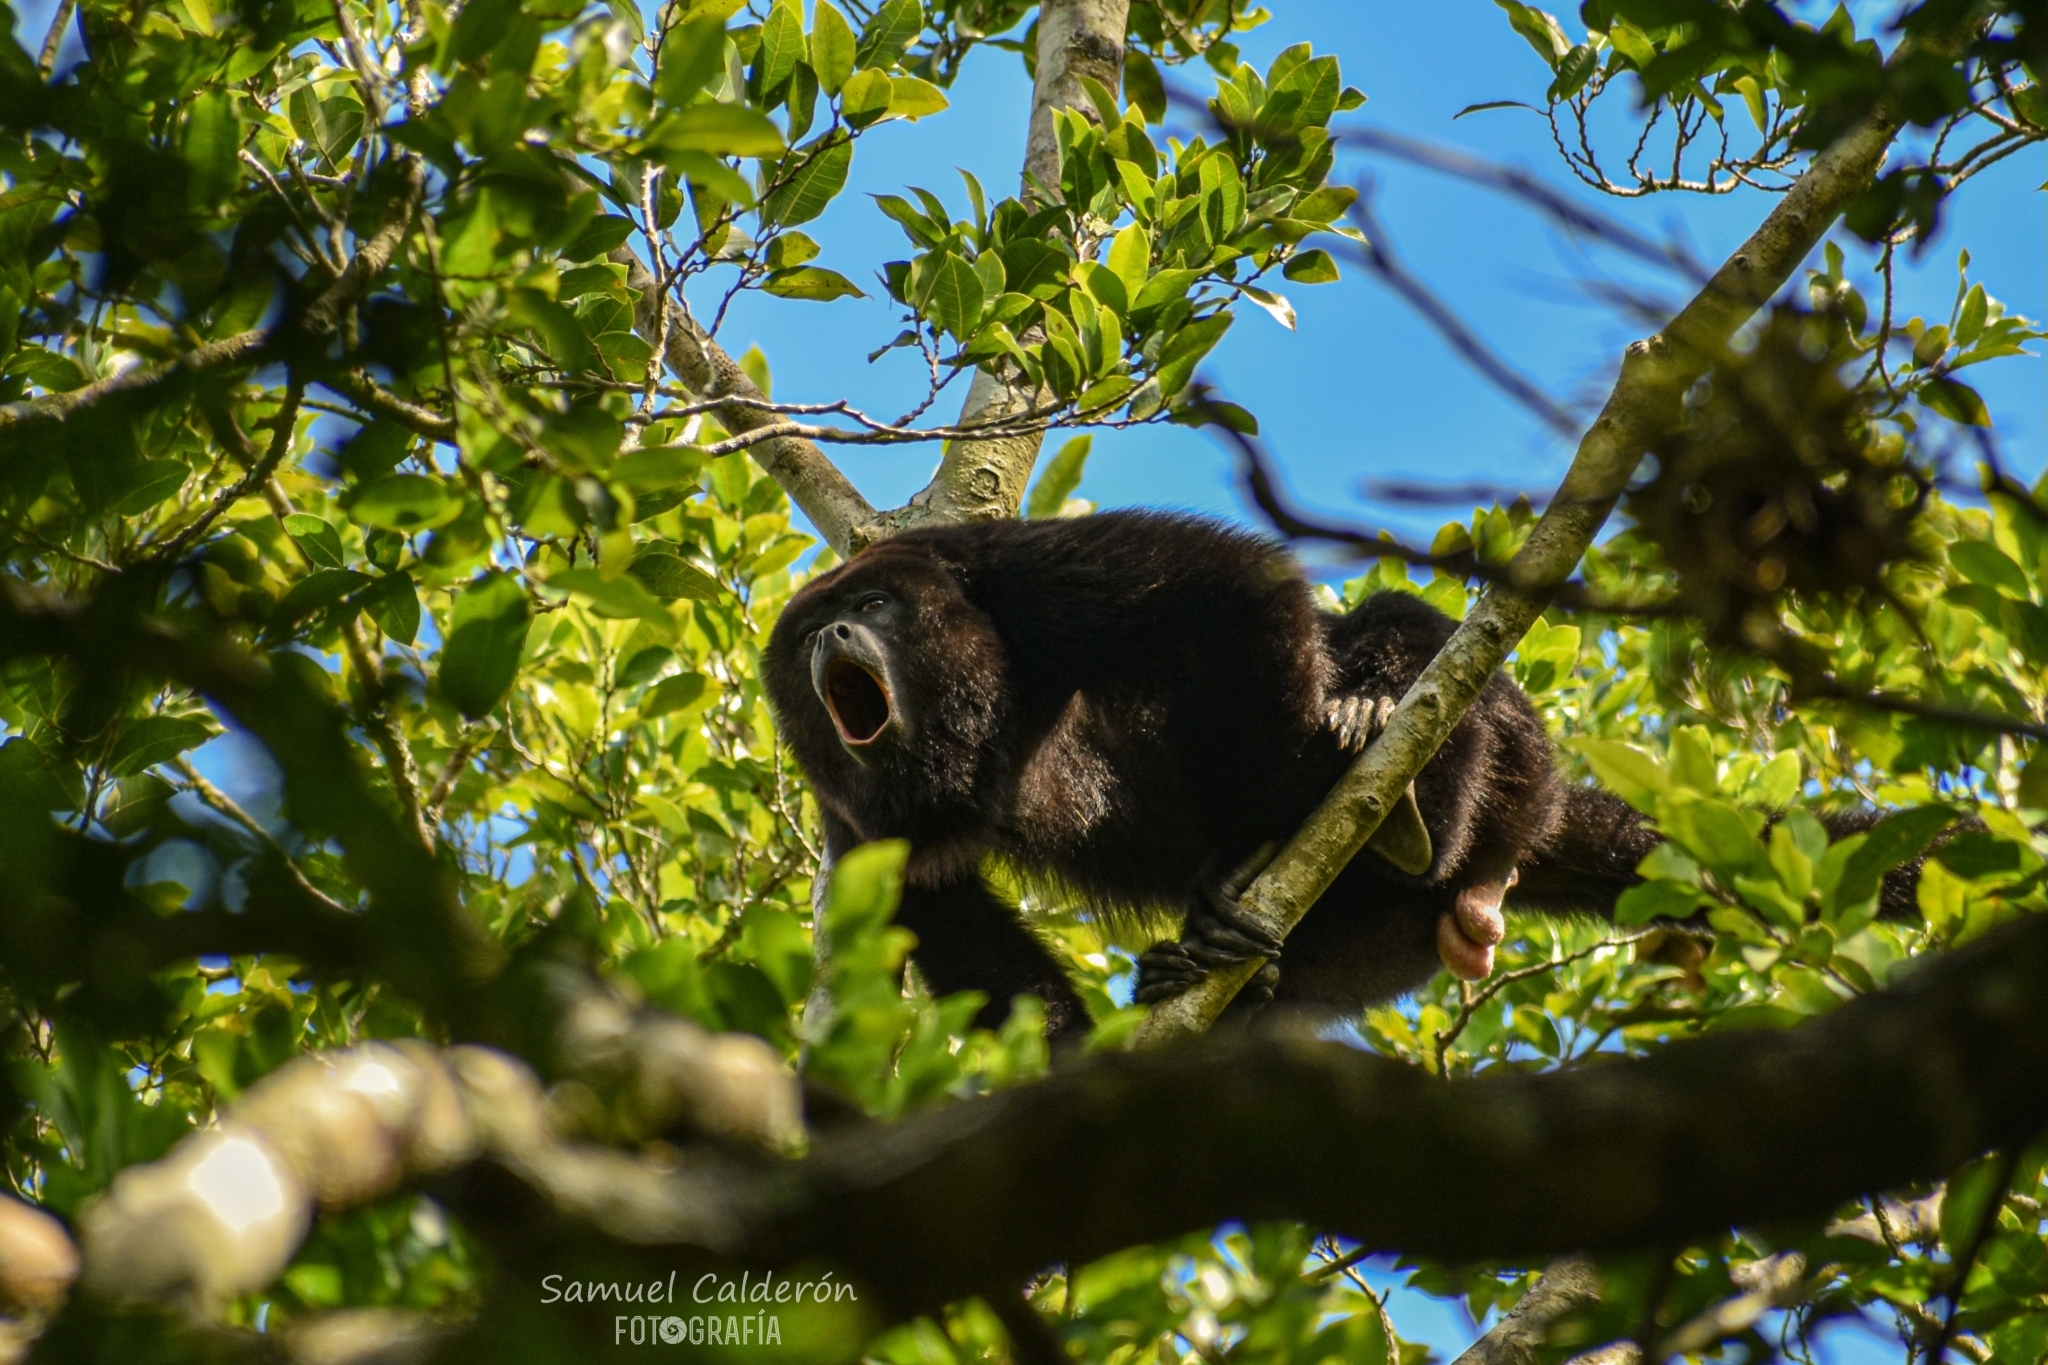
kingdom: Animalia
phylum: Chordata
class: Mammalia
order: Primates
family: Atelidae
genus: Alouatta
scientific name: Alouatta pigra
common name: Guatemalan black howler
